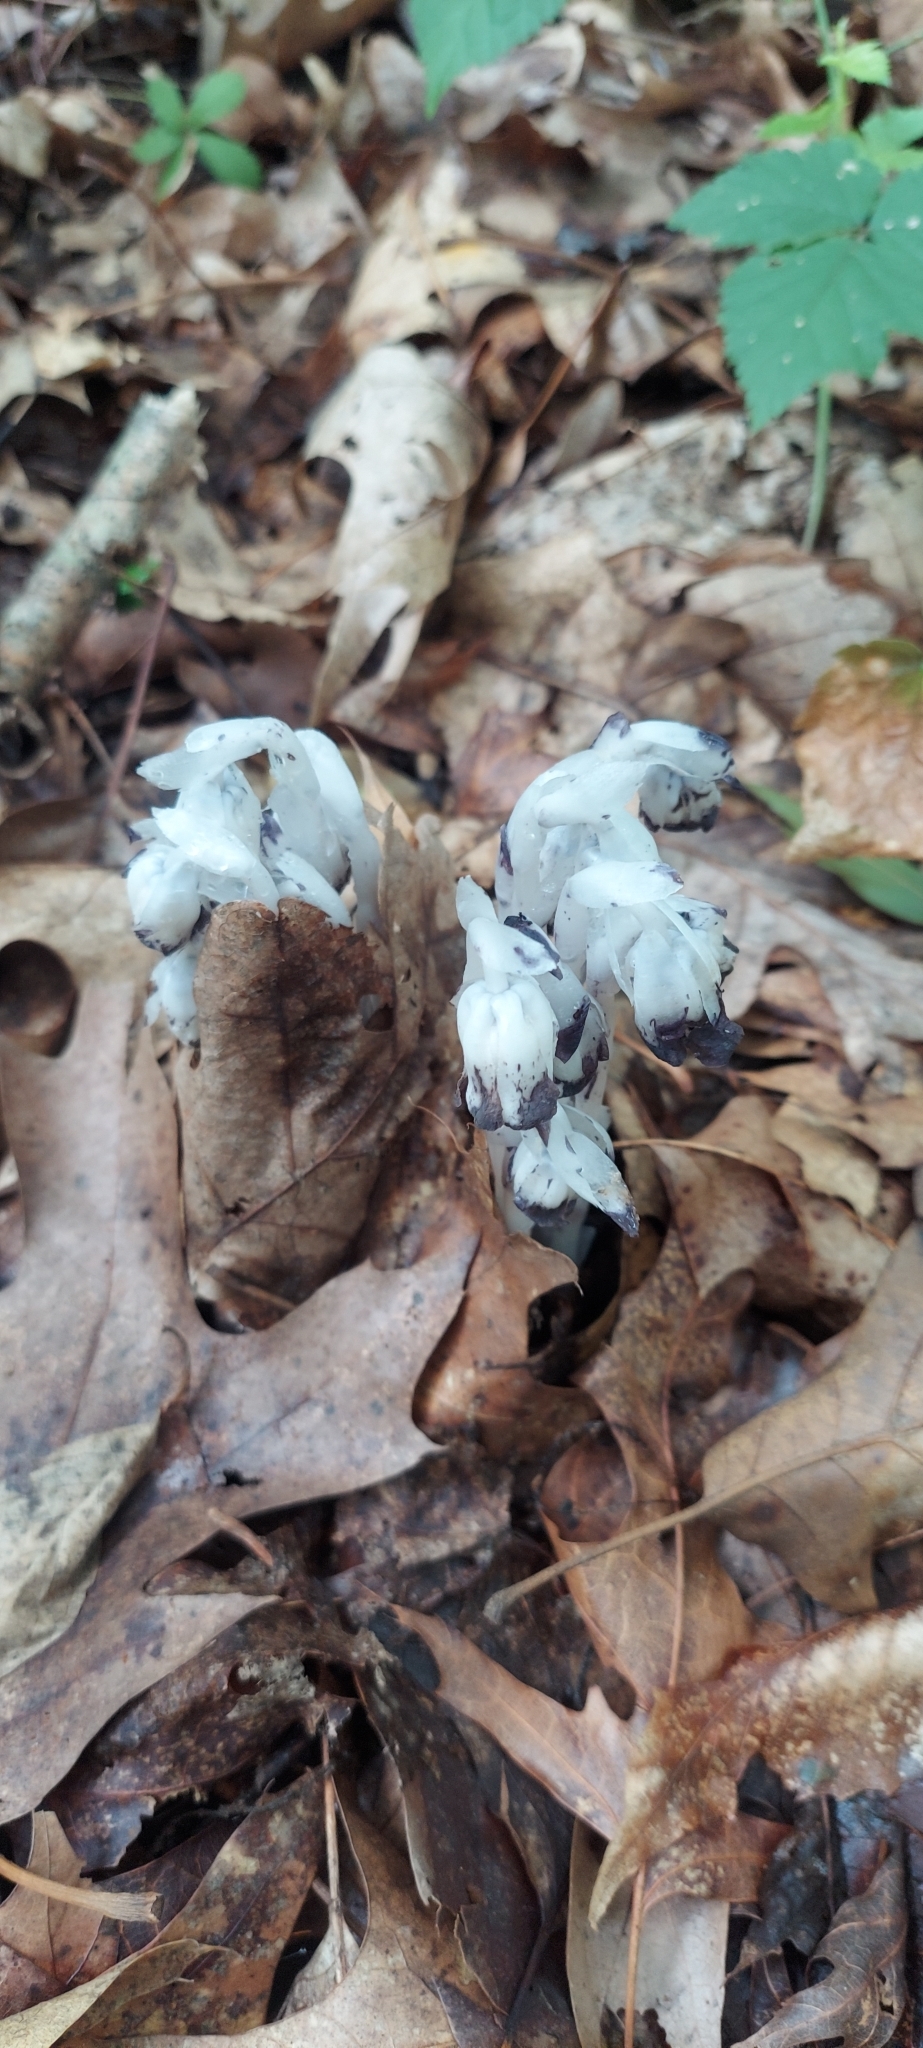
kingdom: Plantae
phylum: Tracheophyta
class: Magnoliopsida
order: Ericales
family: Ericaceae
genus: Monotropa
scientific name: Monotropa uniflora
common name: Convulsion root
